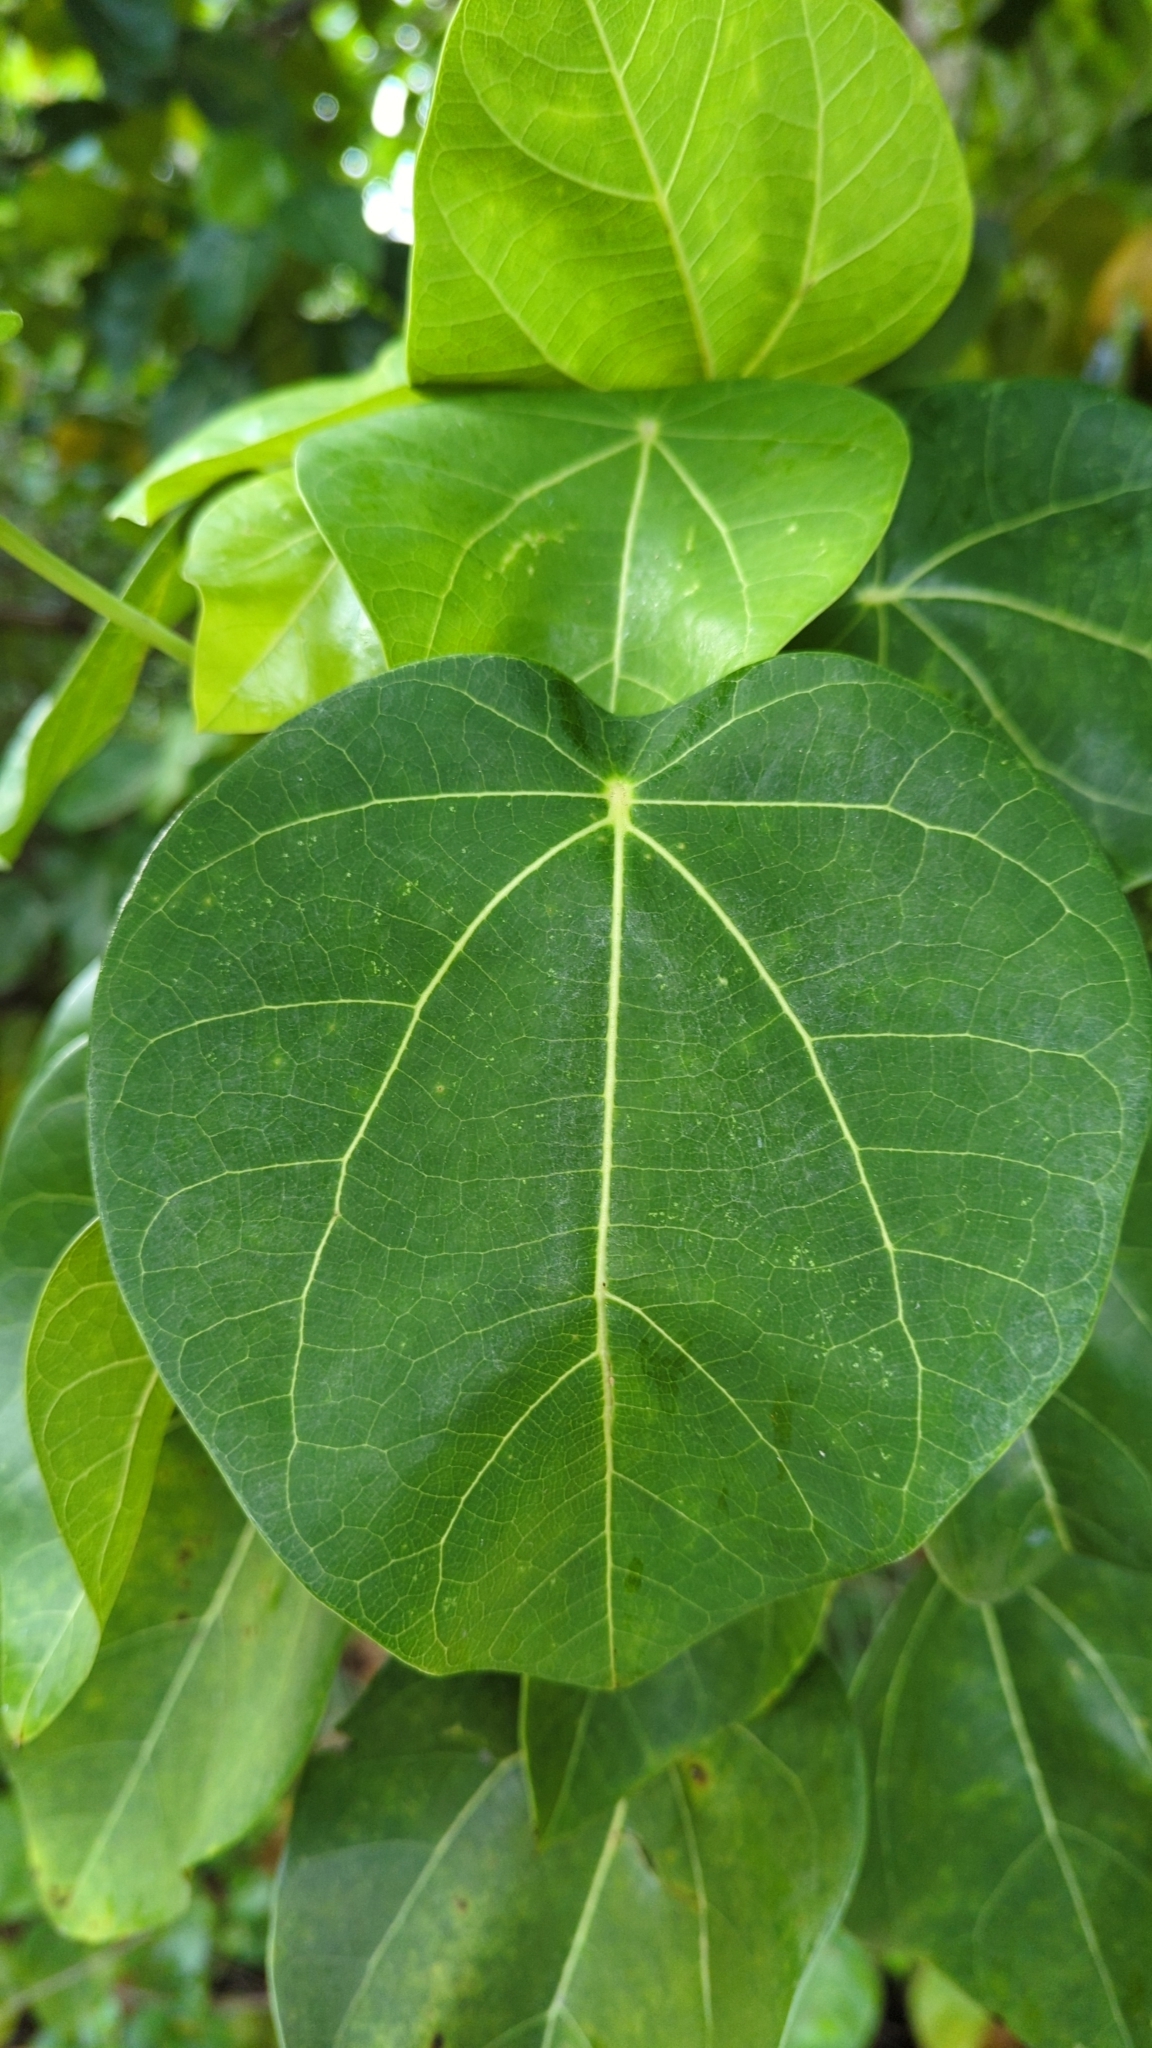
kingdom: Plantae
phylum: Tracheophyta
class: Magnoliopsida
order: Laurales
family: Hernandiaceae
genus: Hernandia
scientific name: Hernandia nymphaeifolia
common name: Sea hearse
